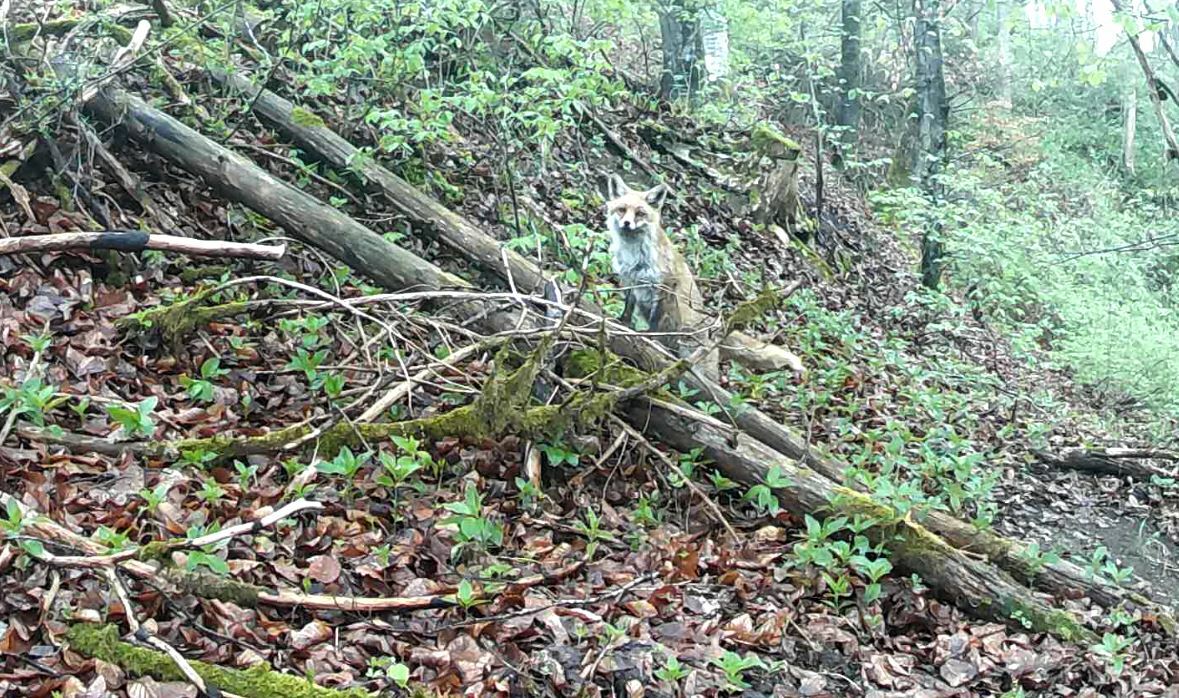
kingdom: Animalia
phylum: Chordata
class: Mammalia
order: Carnivora
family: Canidae
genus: Vulpes
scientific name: Vulpes vulpes
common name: Red fox
